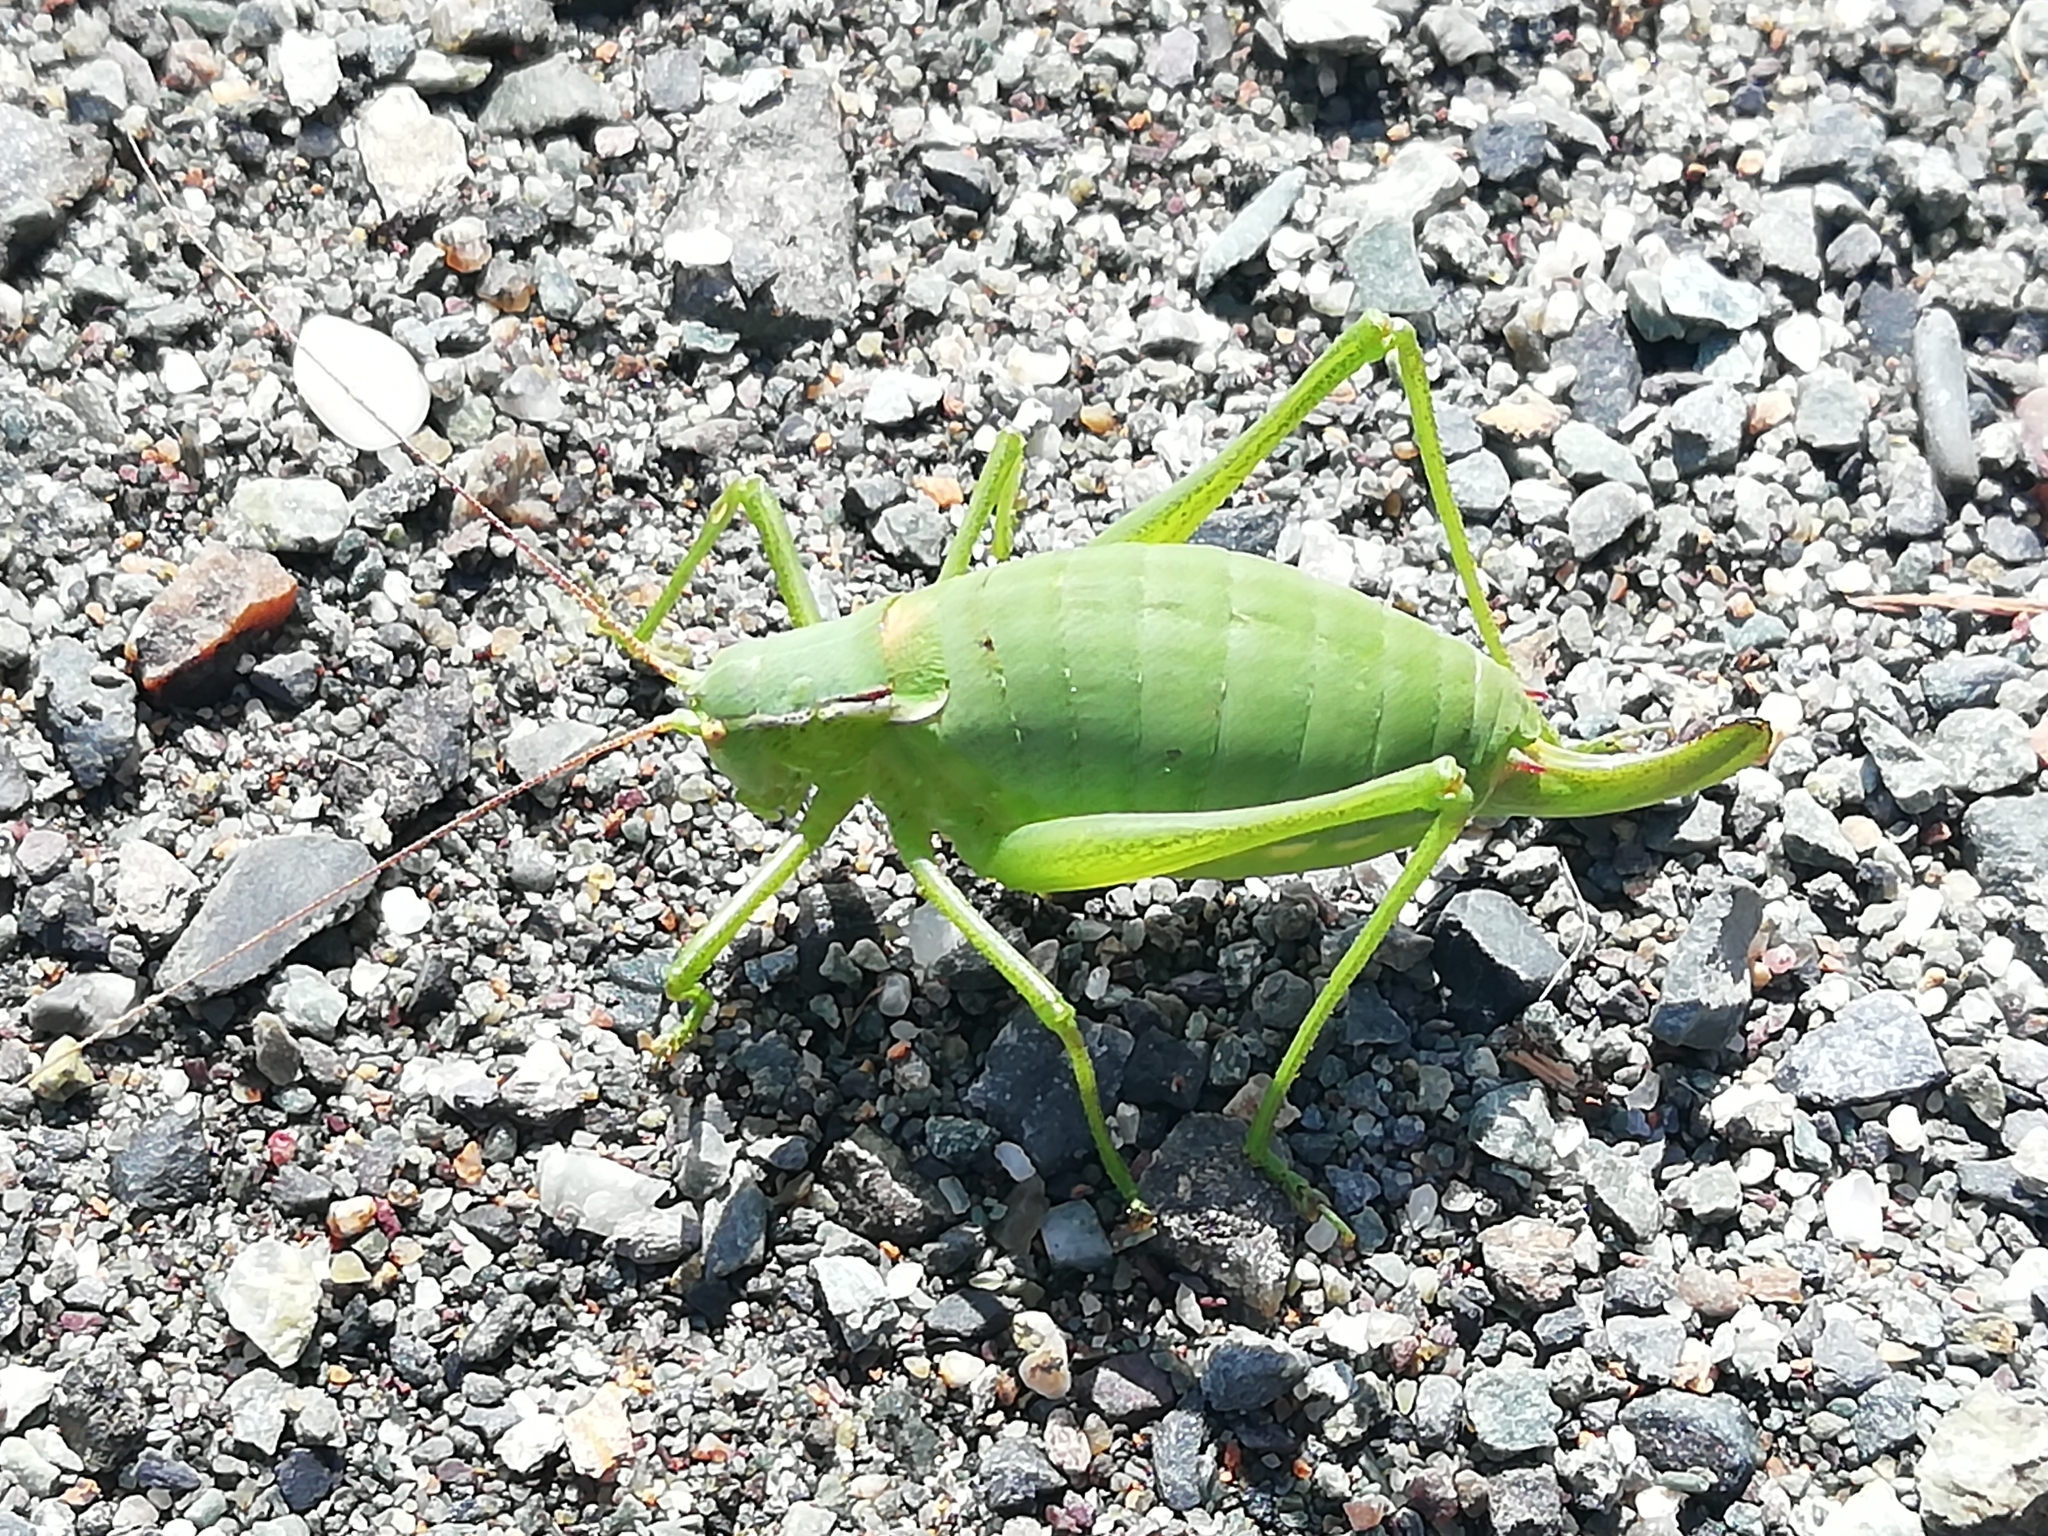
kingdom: Animalia
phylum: Arthropoda
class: Insecta
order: Orthoptera
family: Tettigoniidae
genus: Isophya
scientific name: Isophya altaica
